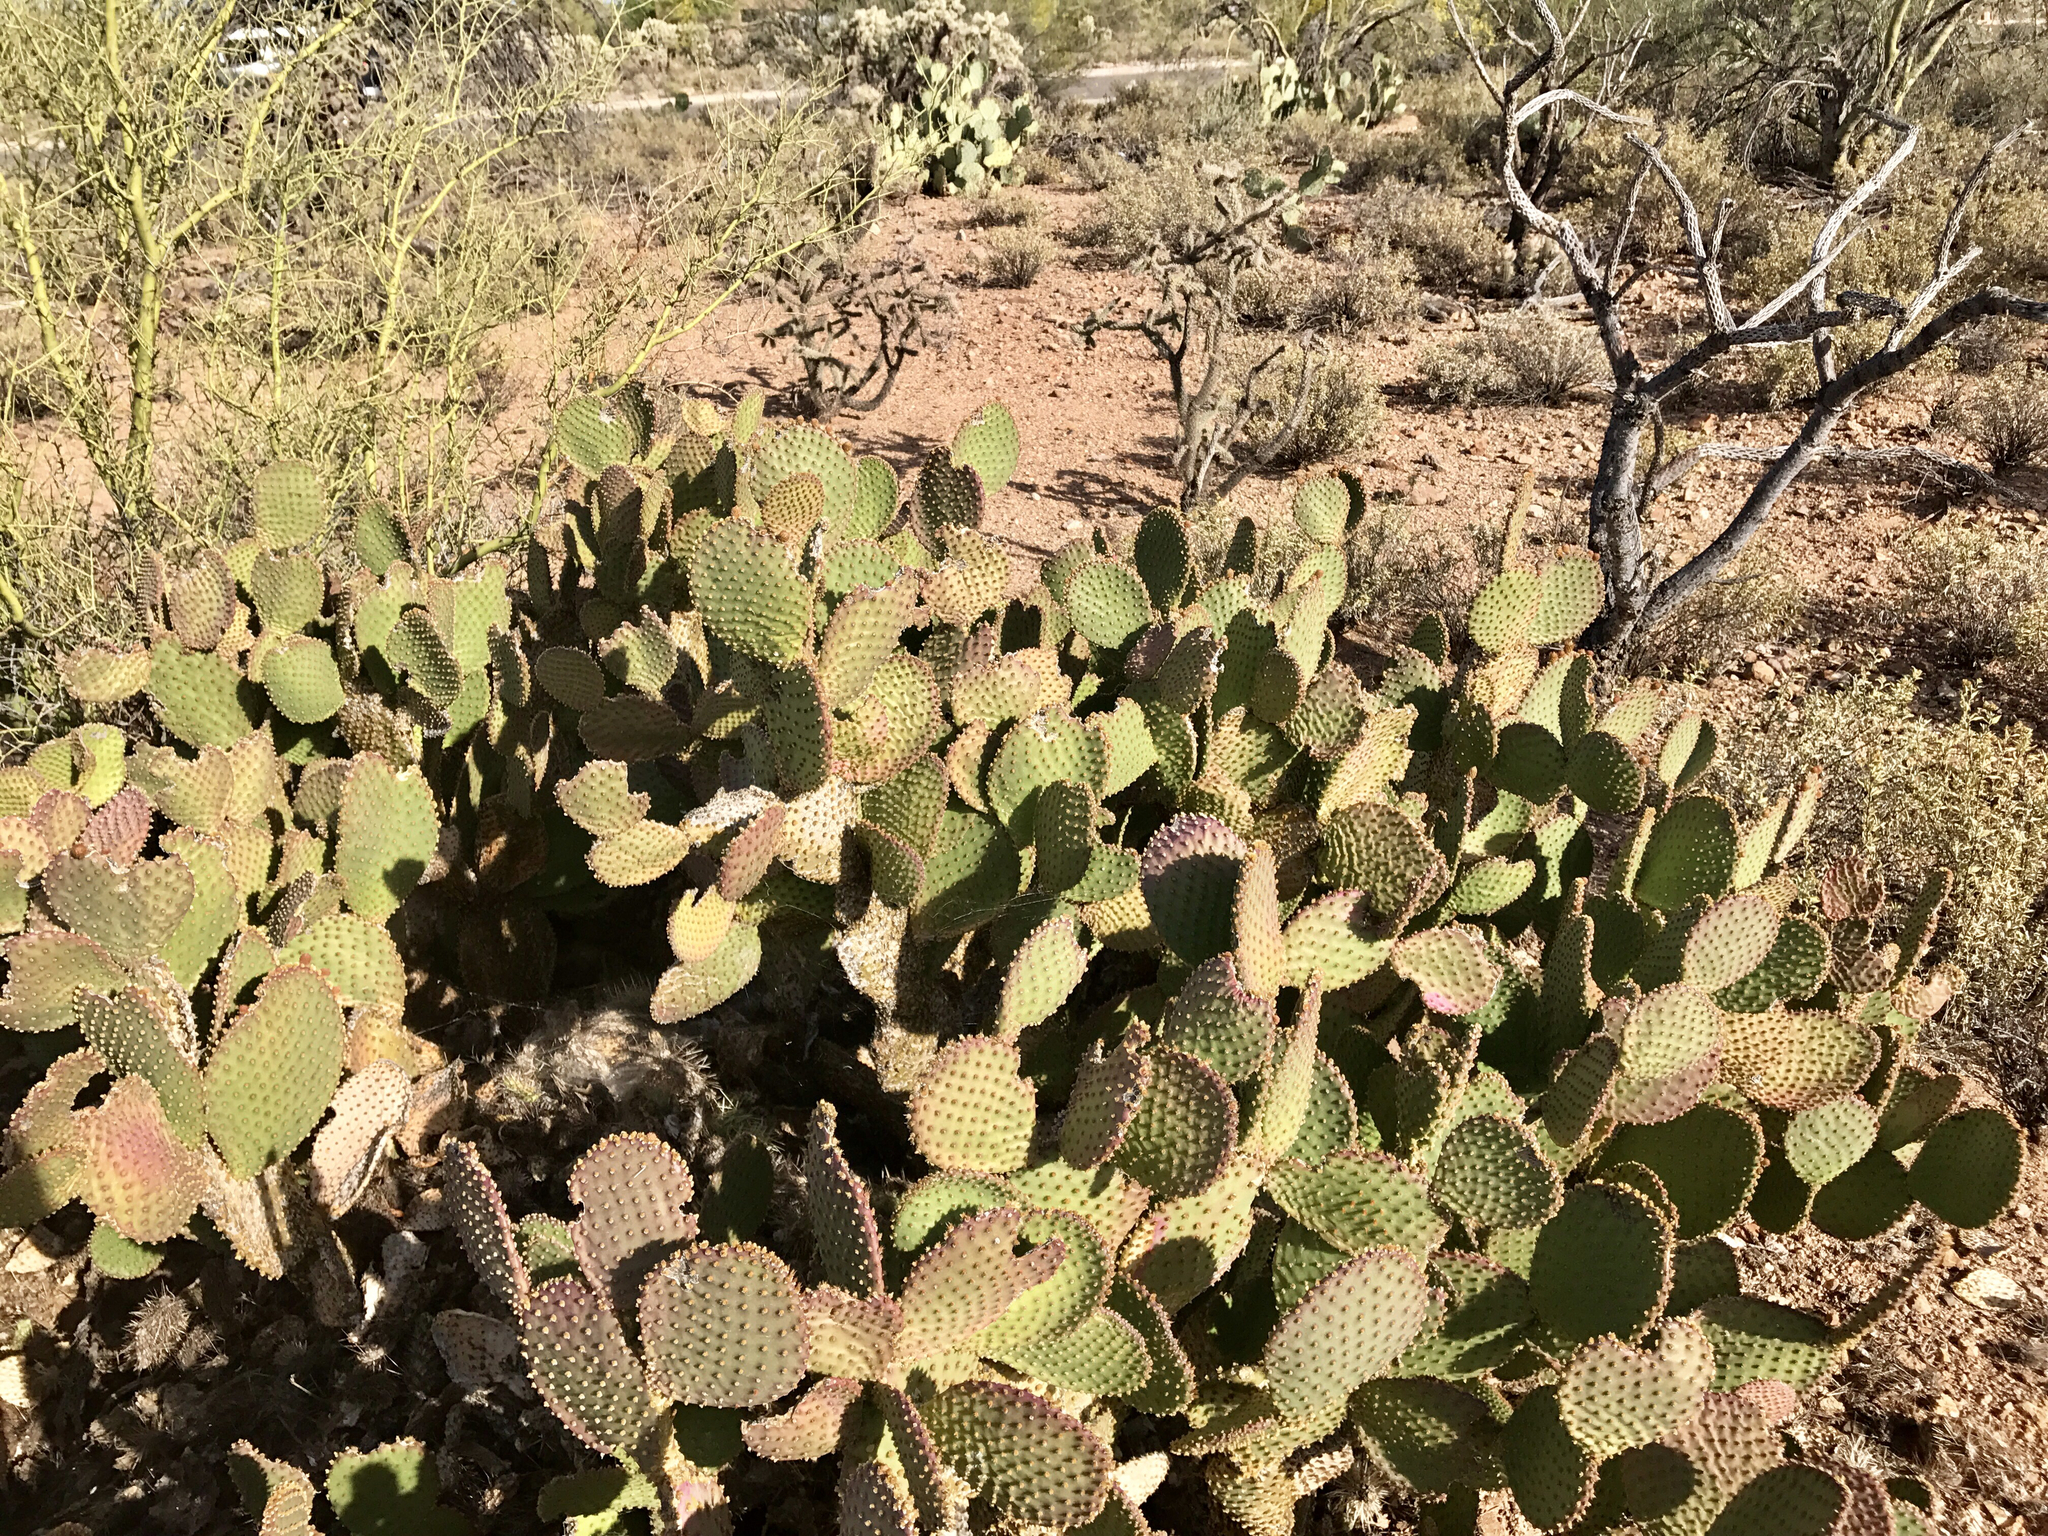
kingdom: Plantae
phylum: Tracheophyta
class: Magnoliopsida
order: Caryophyllales
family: Cactaceae
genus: Opuntia
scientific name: Opuntia microdasys
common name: Angel's-wings
